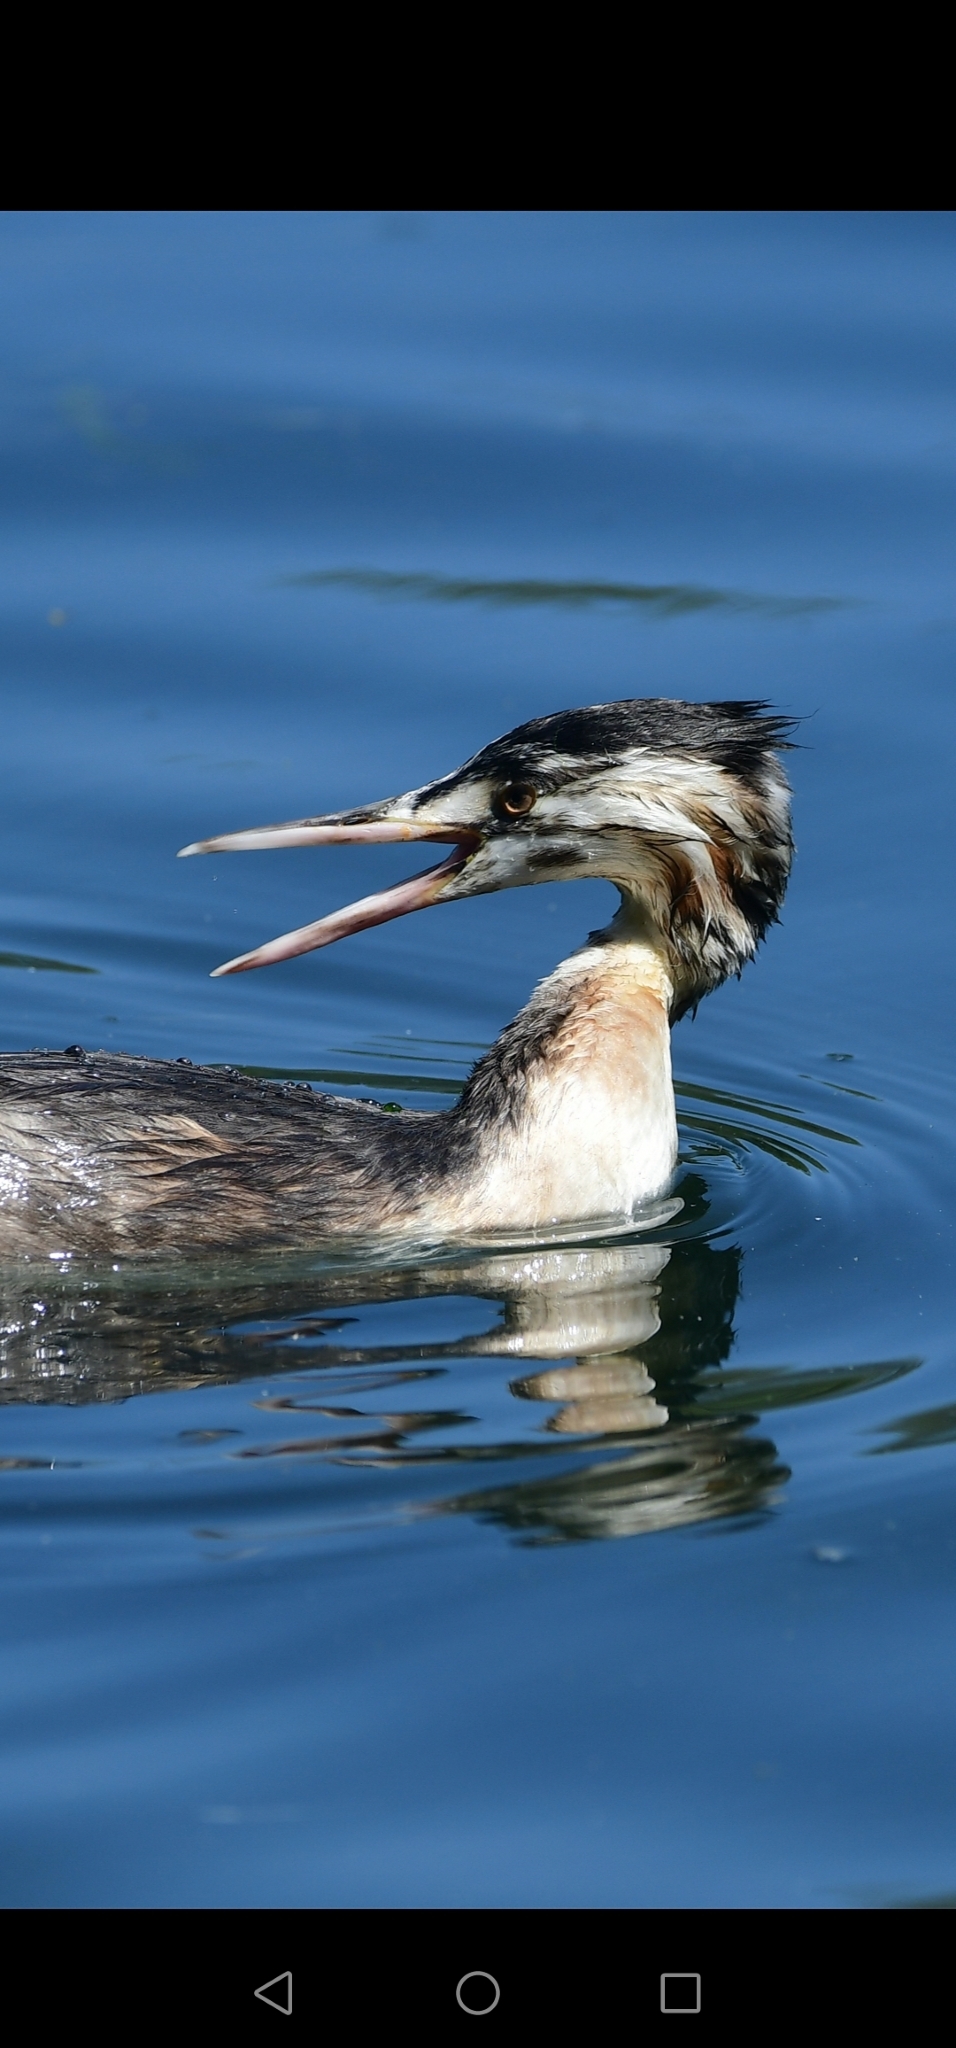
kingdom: Animalia
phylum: Chordata
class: Aves
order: Podicipediformes
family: Podicipedidae
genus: Podiceps
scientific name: Podiceps cristatus
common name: Great crested grebe
